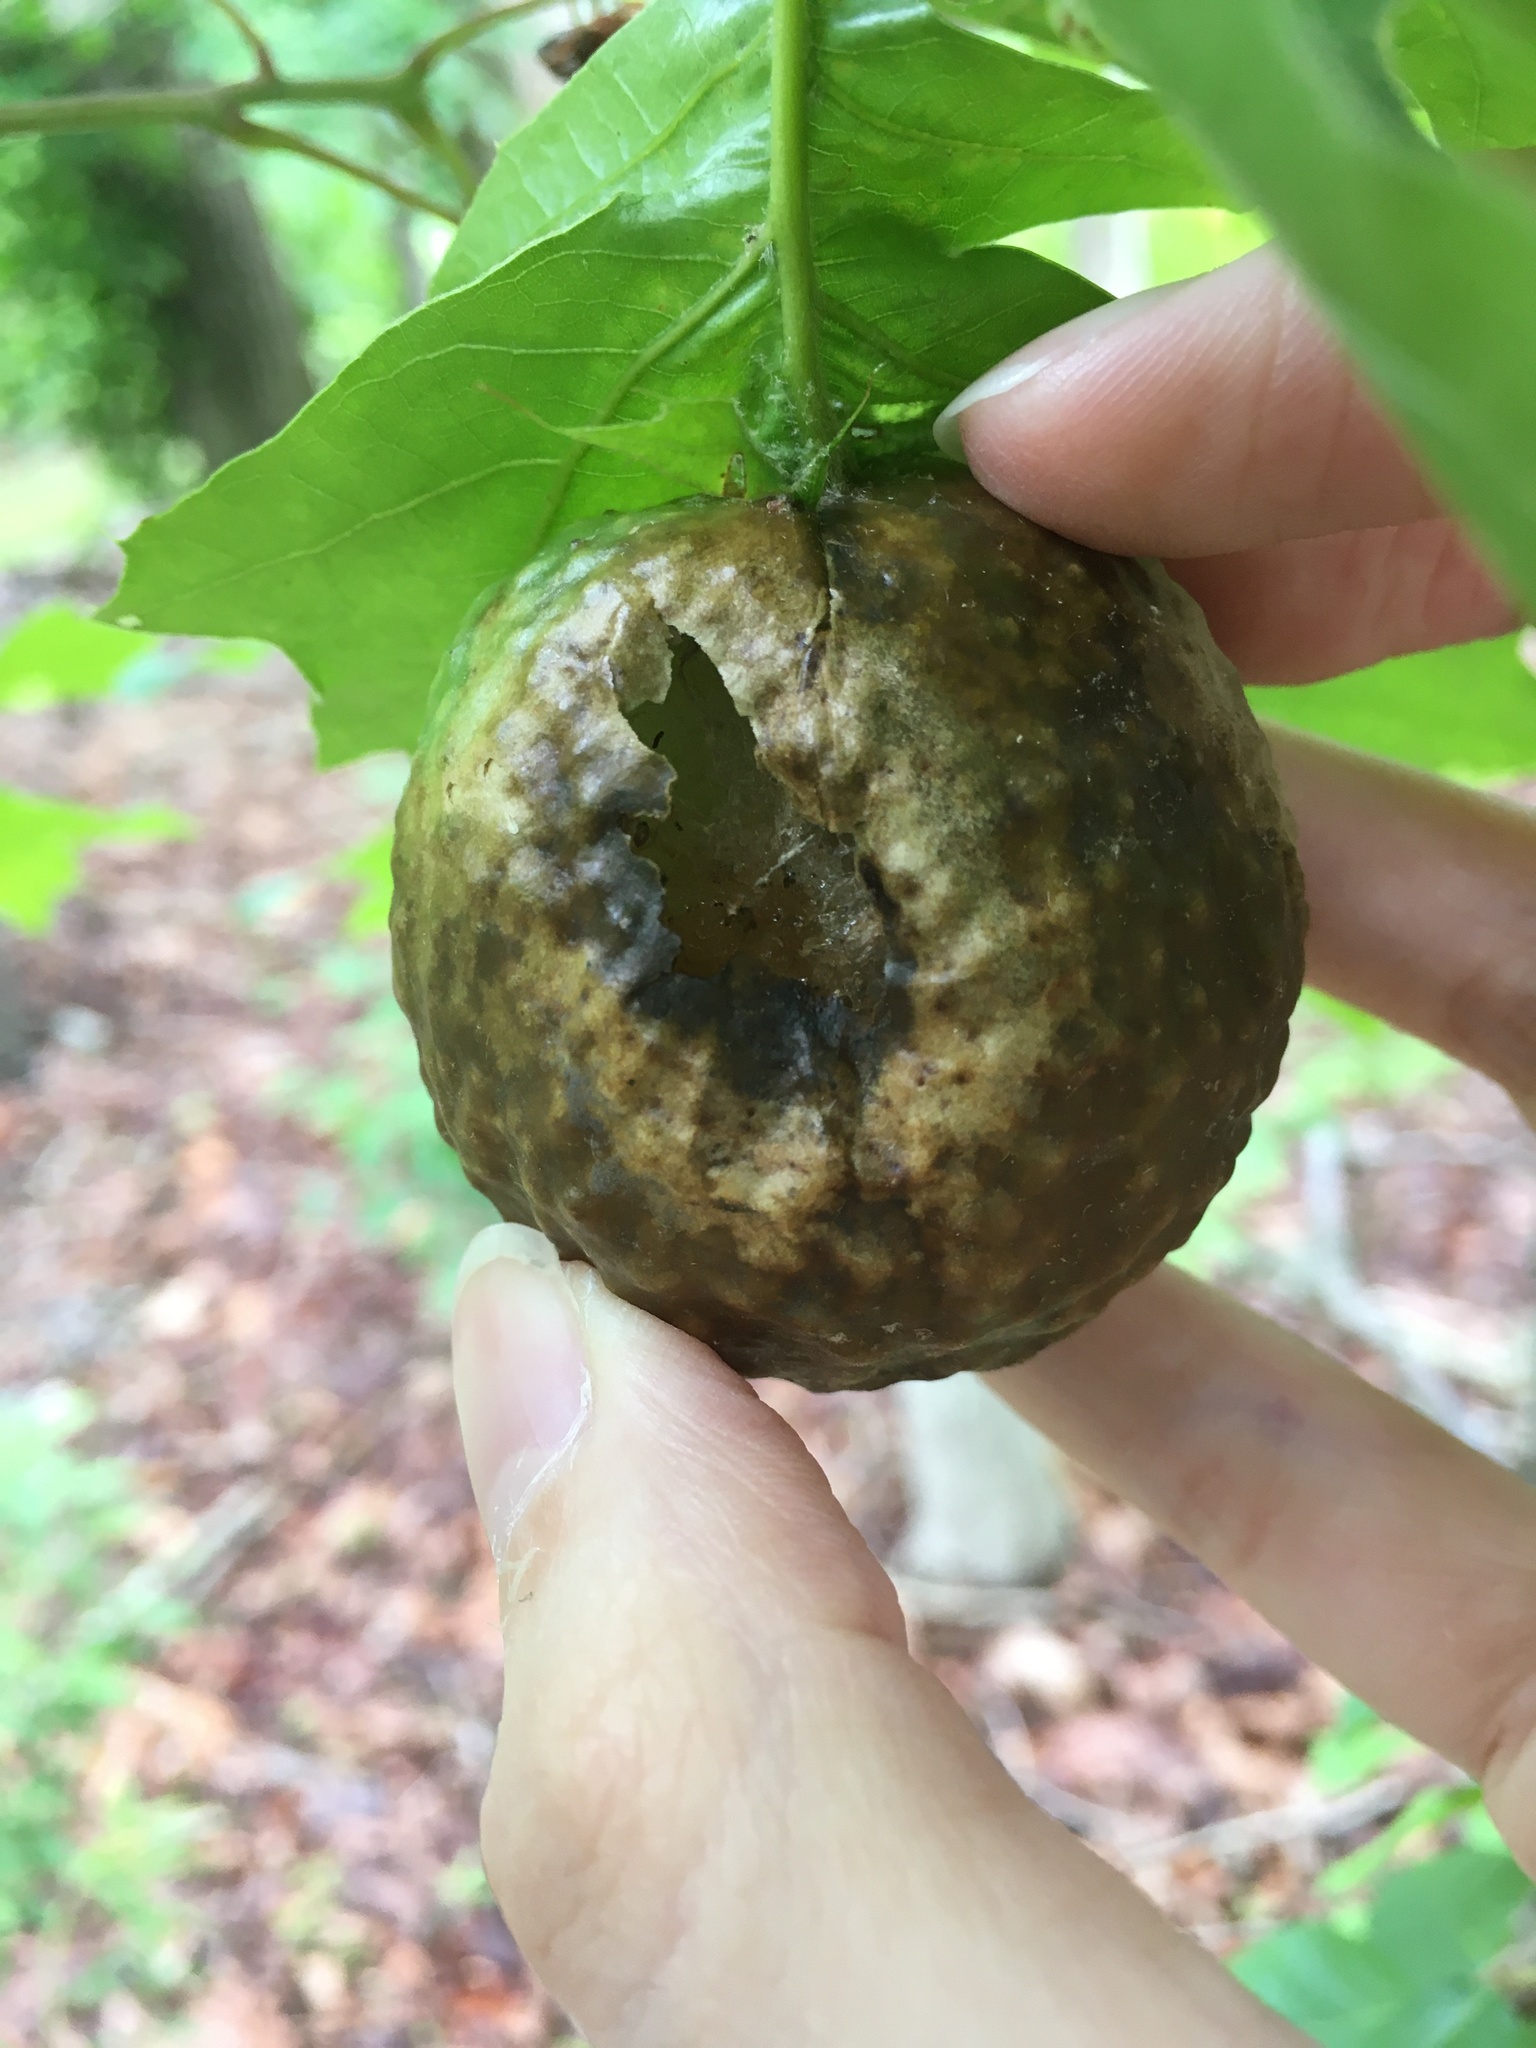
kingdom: Animalia
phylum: Arthropoda
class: Insecta
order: Hymenoptera
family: Cynipidae
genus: Amphibolips
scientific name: Amphibolips
